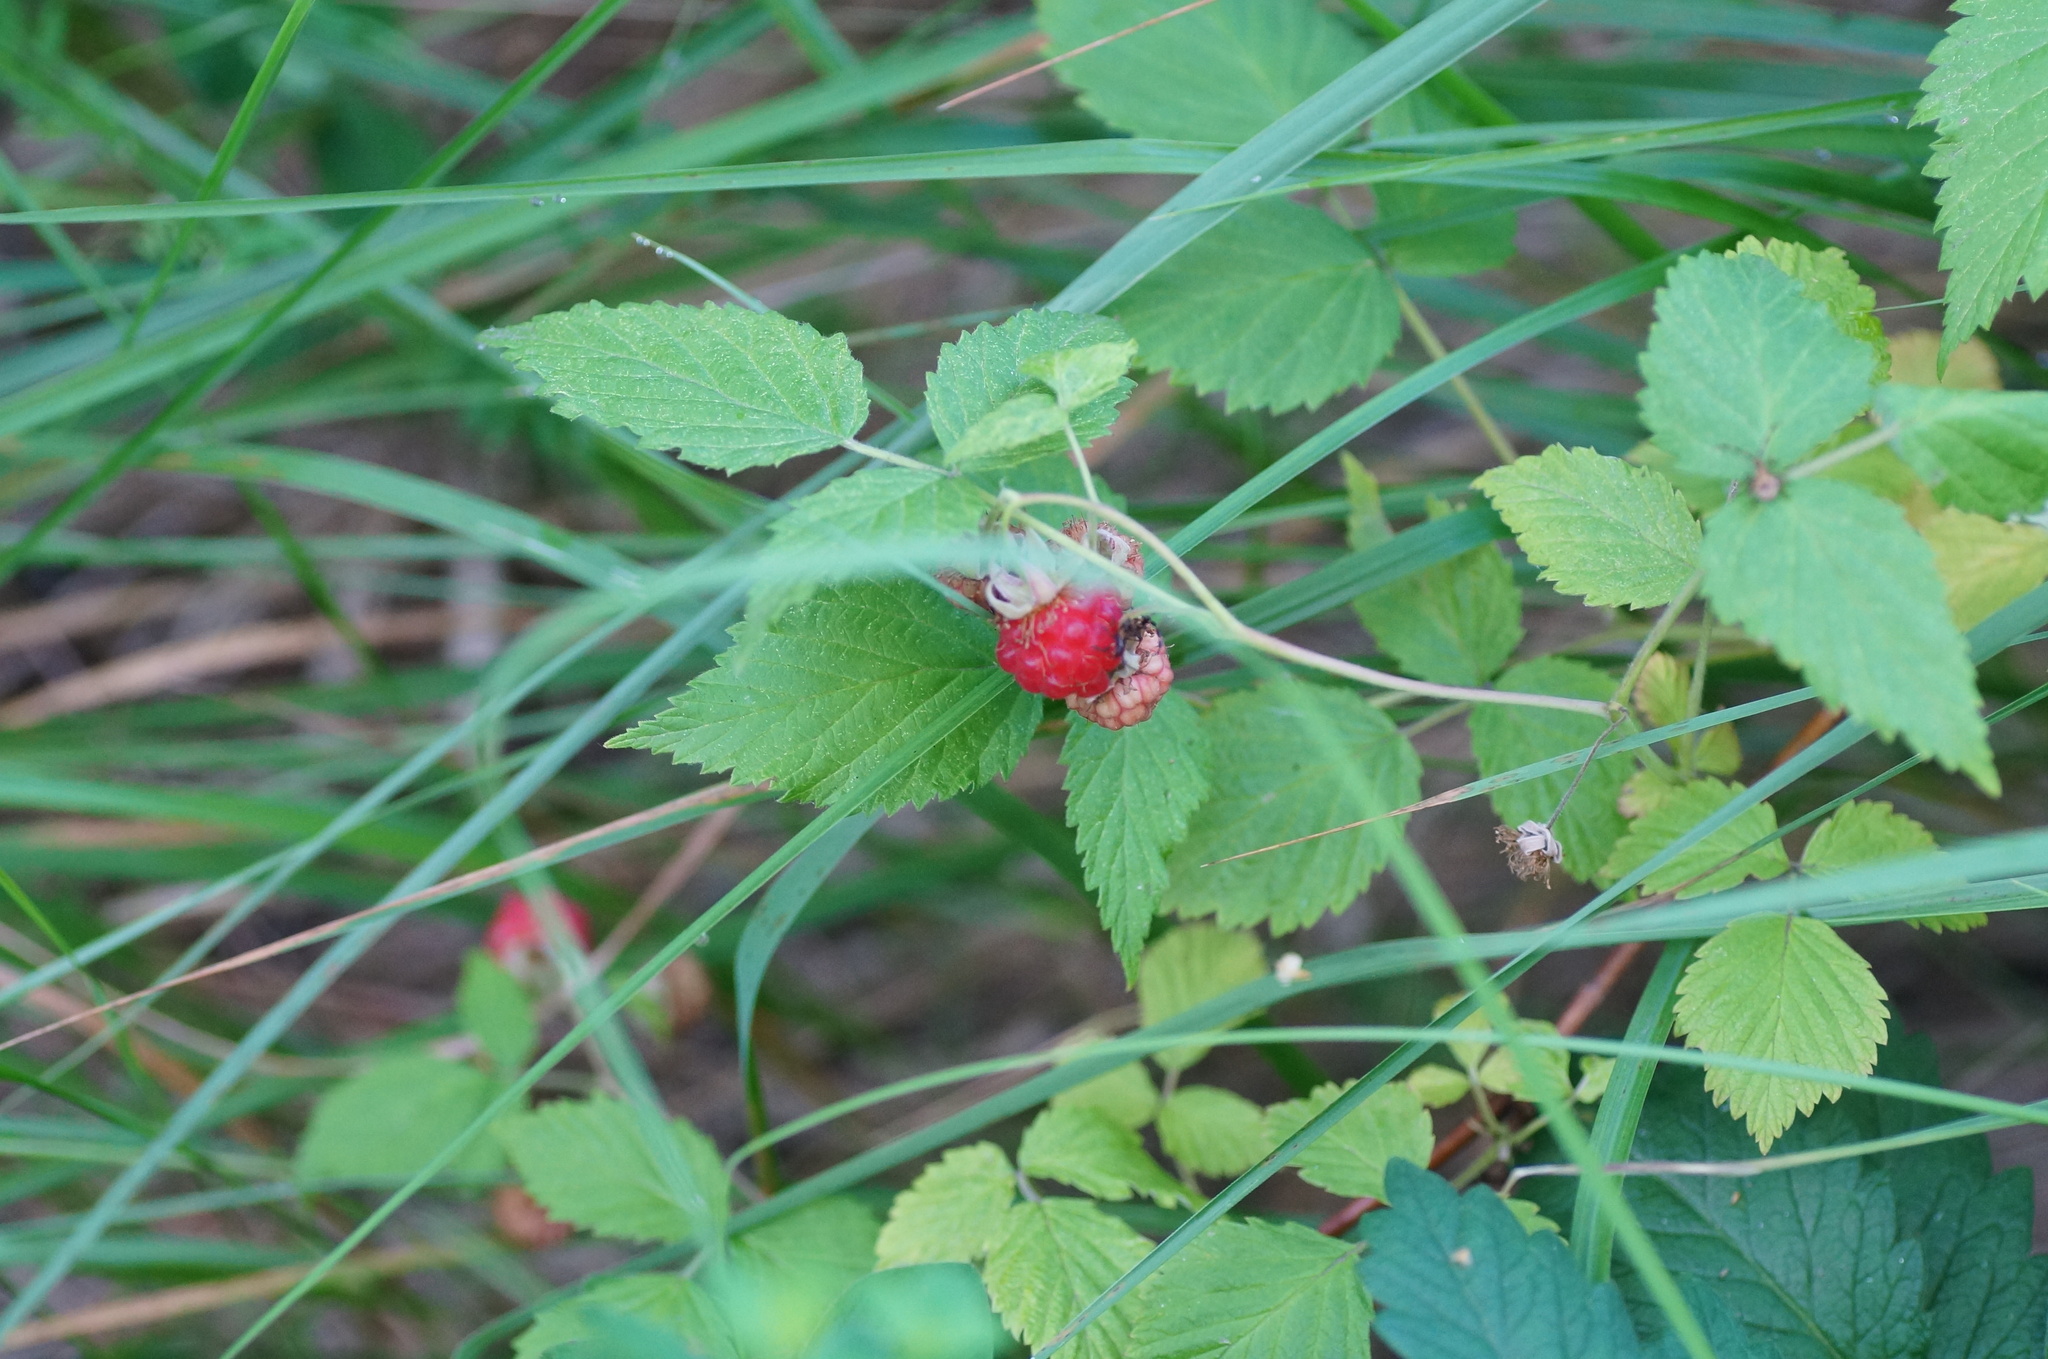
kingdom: Plantae
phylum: Tracheophyta
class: Magnoliopsida
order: Rosales
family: Rosaceae
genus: Rubus
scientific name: Rubus idaeus
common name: Raspberry
